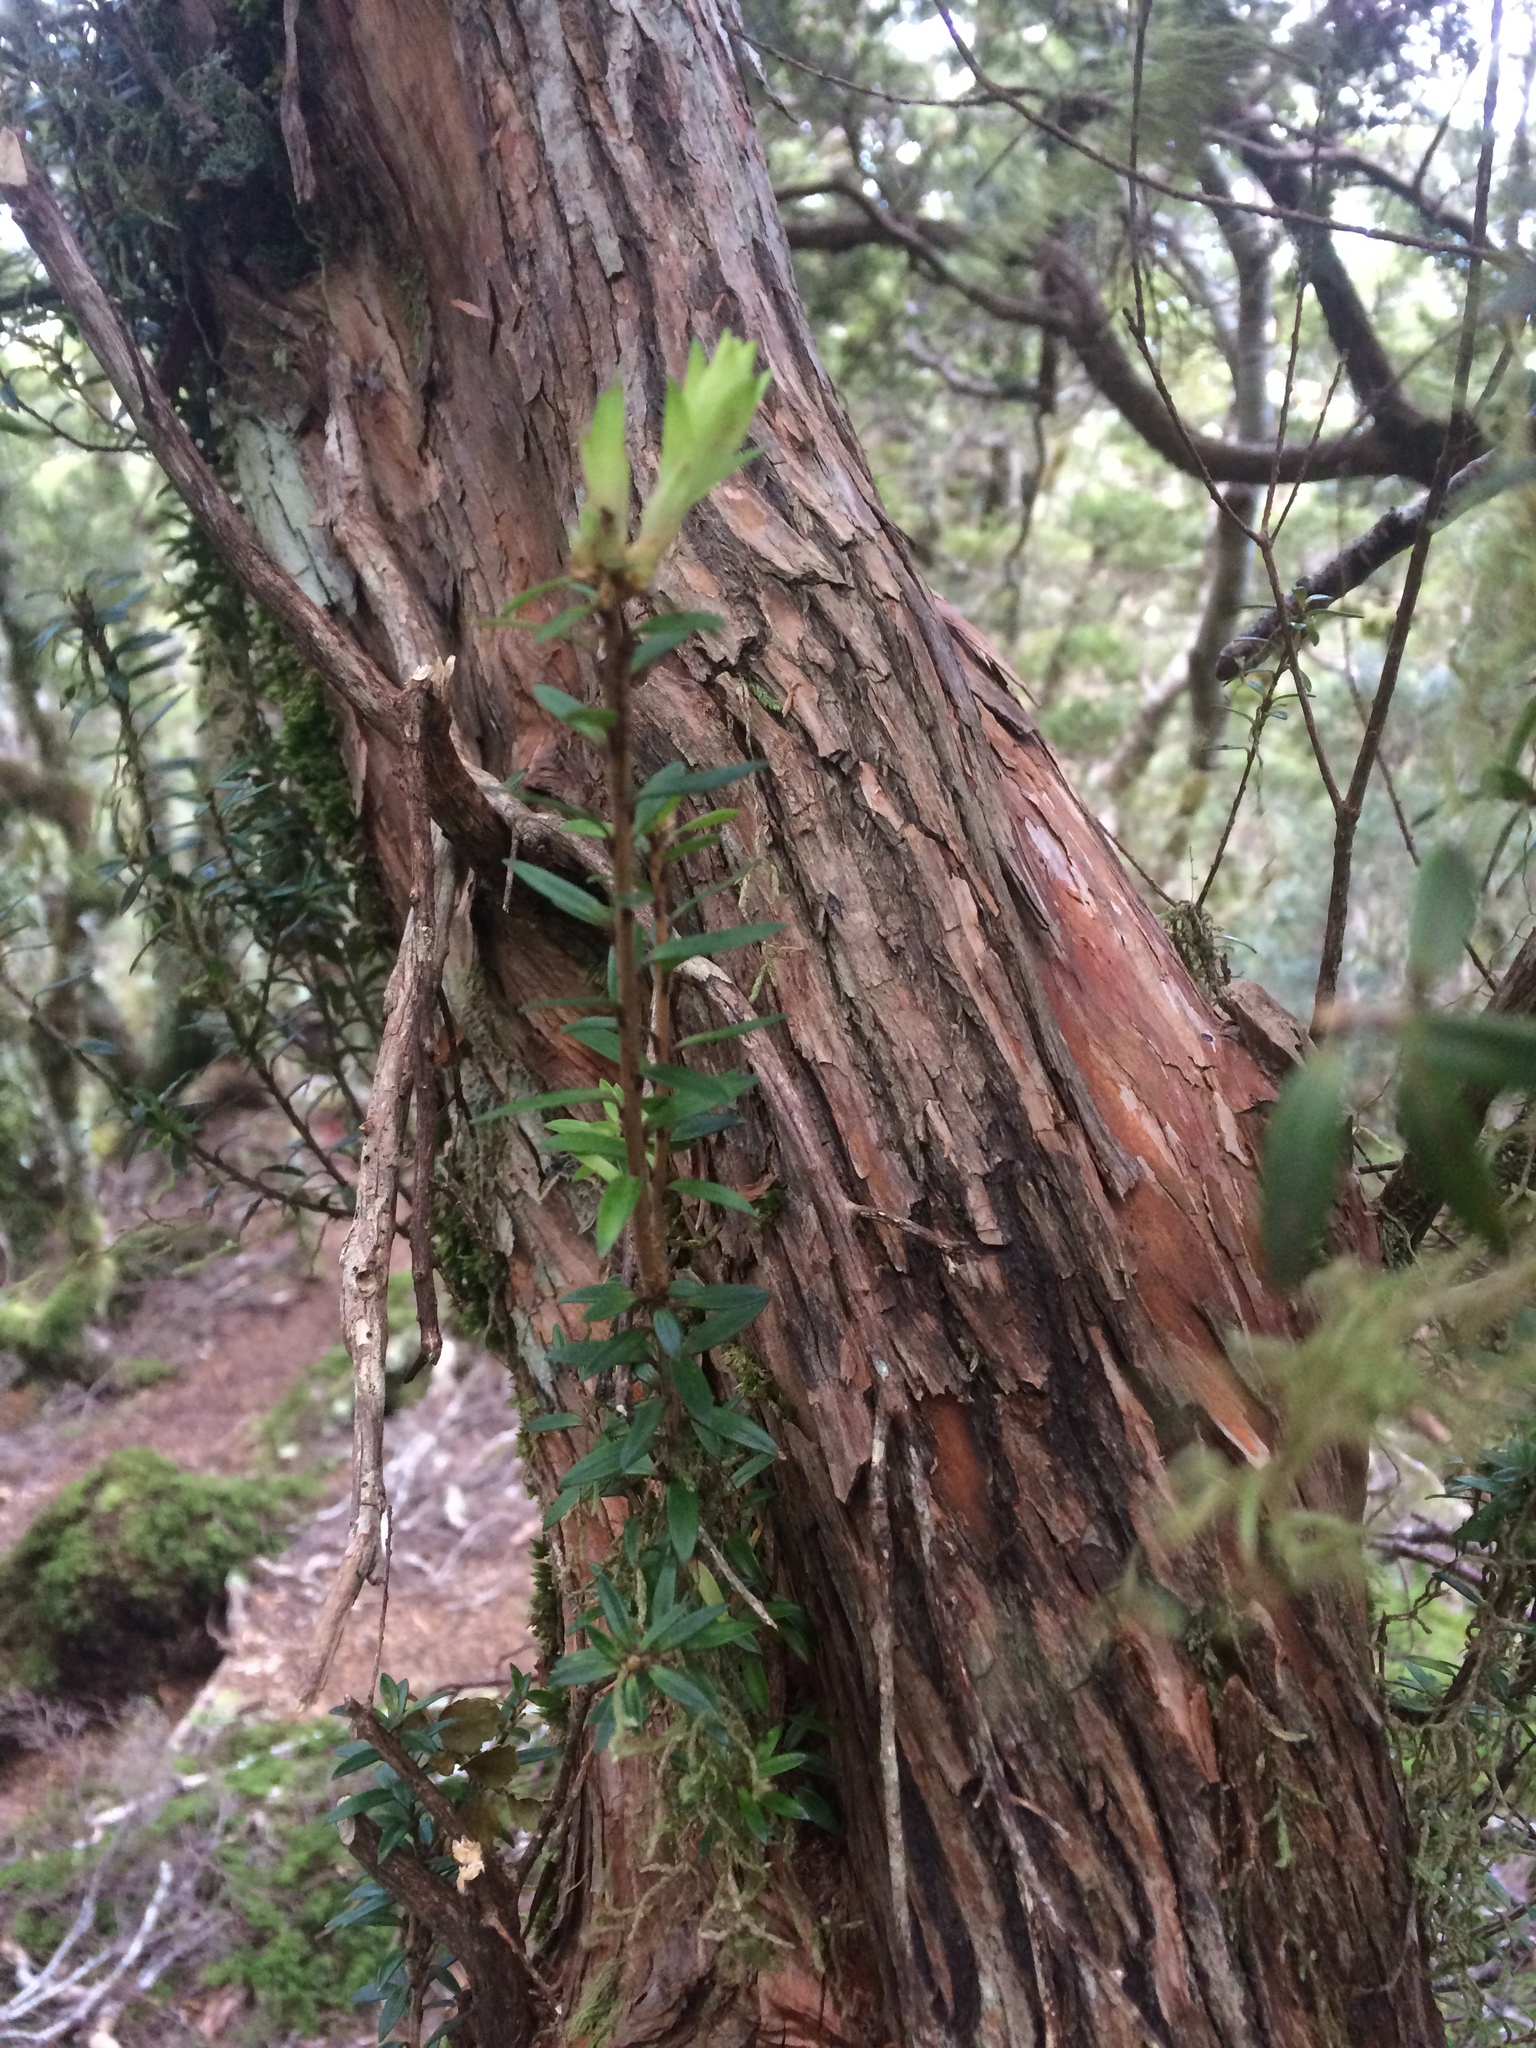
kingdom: Plantae
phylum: Tracheophyta
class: Magnoliopsida
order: Ericales
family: Ericaceae
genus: Archeria
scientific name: Archeria traversii
